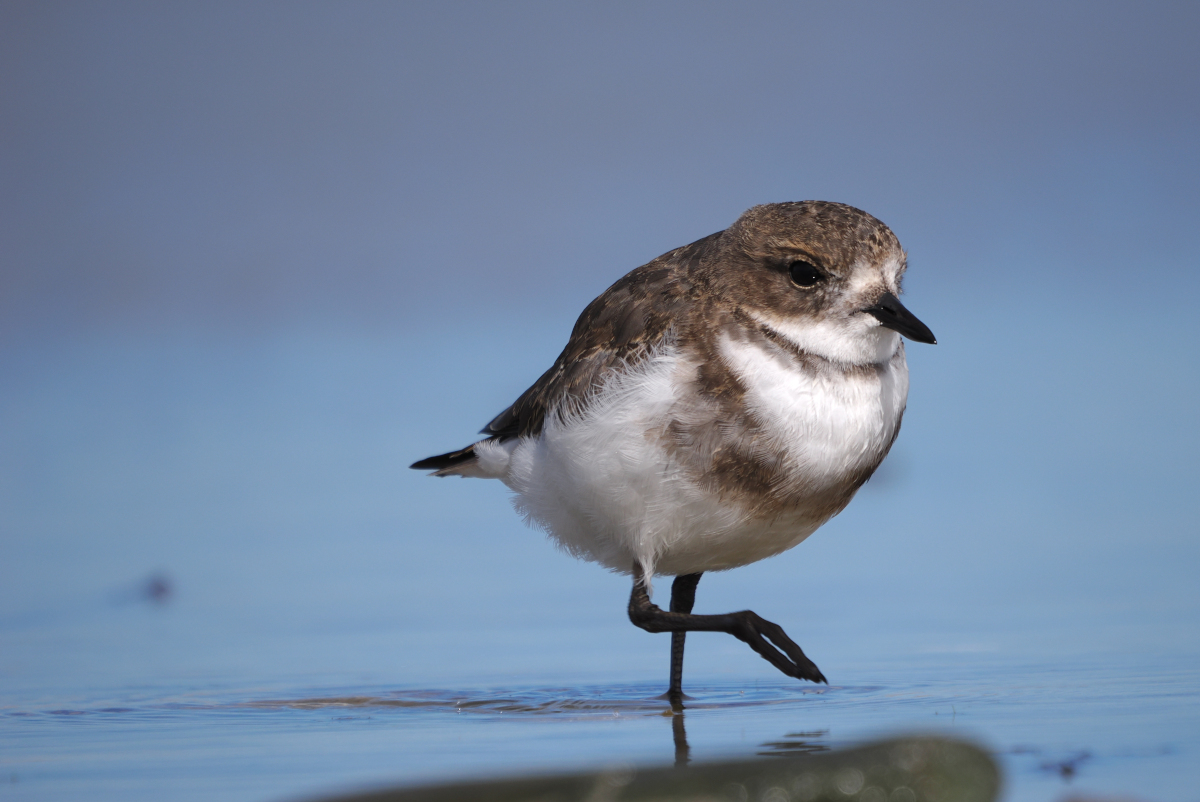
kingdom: Animalia
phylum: Chordata
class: Aves
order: Charadriiformes
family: Charadriidae
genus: Anarhynchus
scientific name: Anarhynchus
